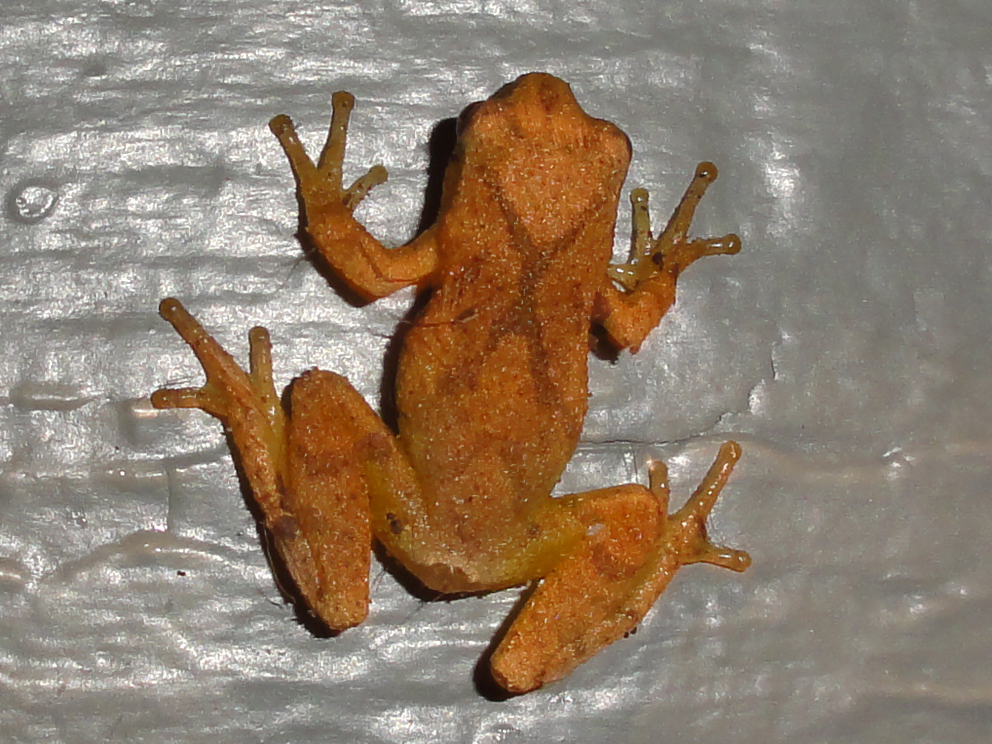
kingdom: Animalia
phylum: Chordata
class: Amphibia
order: Anura
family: Hylidae
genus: Pseudacris
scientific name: Pseudacris crucifer
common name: Spring peeper
